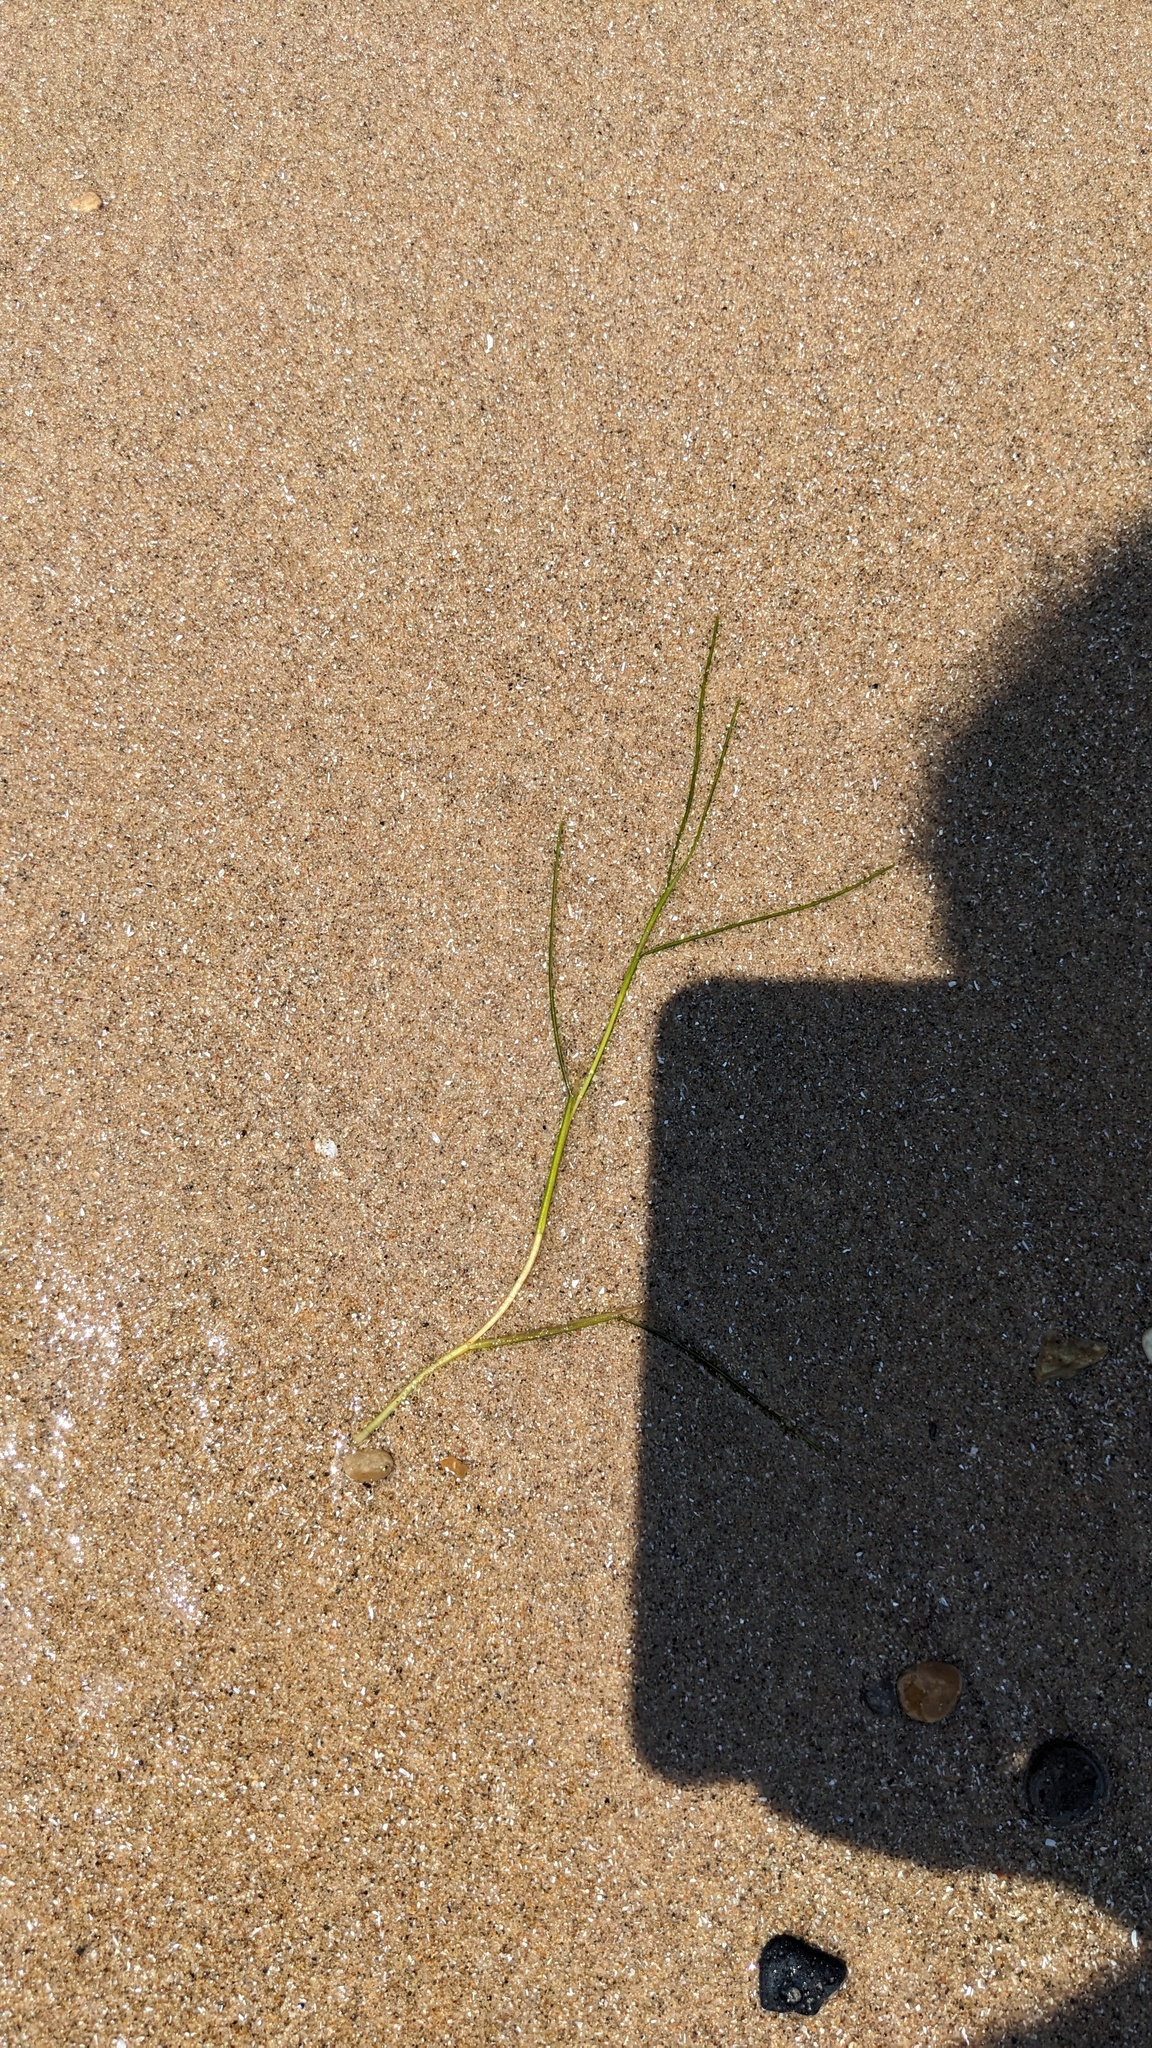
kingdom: Plantae
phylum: Tracheophyta
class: Liliopsida
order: Alismatales
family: Potamogetonaceae
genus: Stuckenia
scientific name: Stuckenia pectinata
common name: Sago pondweed
